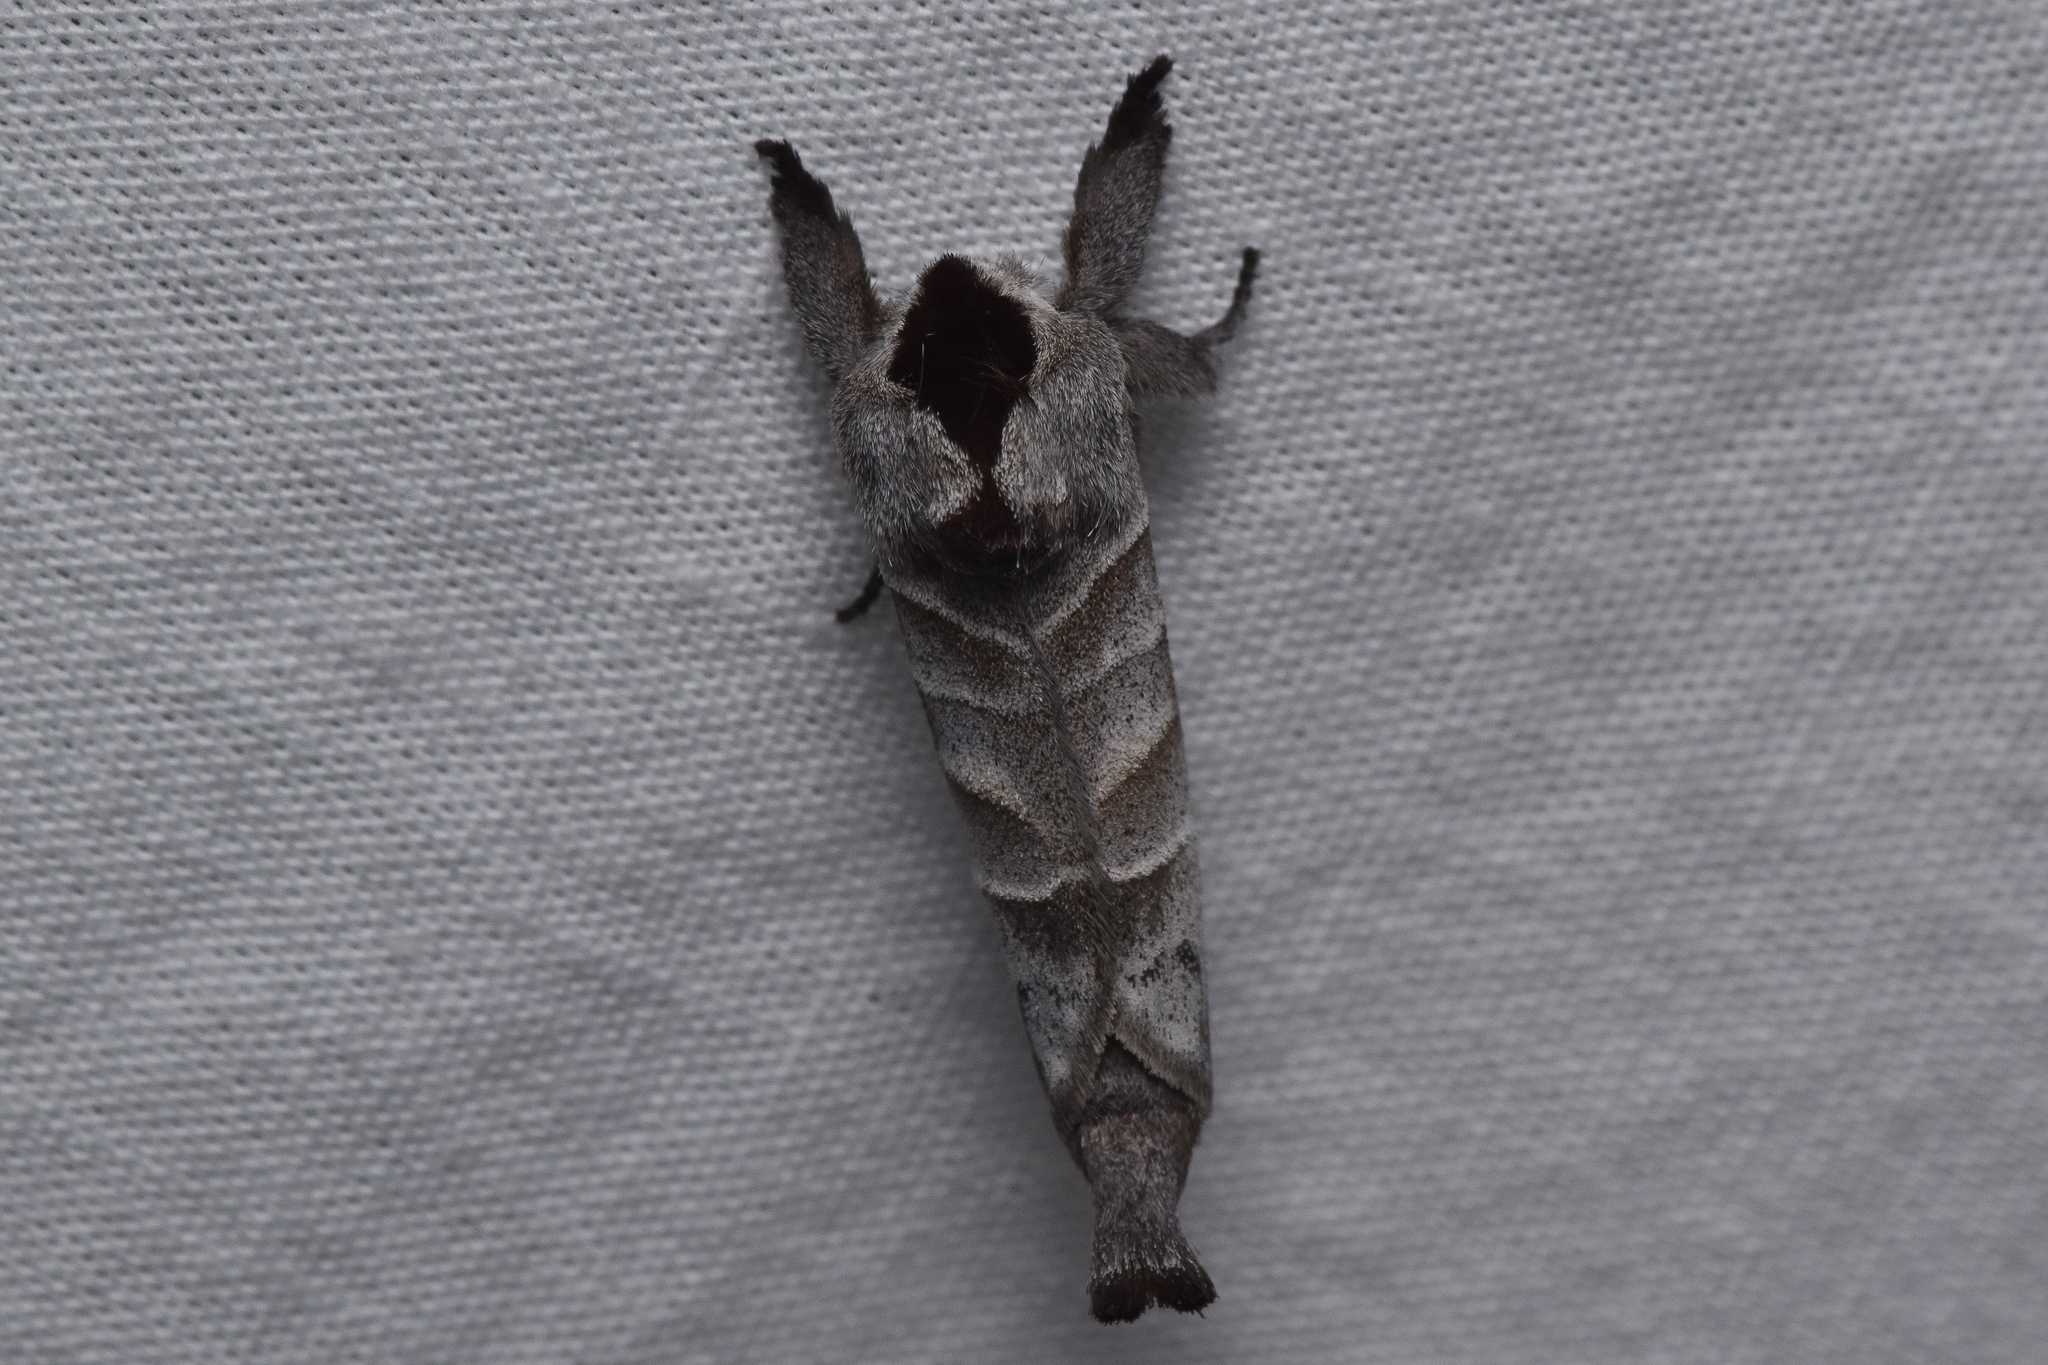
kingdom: Animalia
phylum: Arthropoda
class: Insecta
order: Lepidoptera
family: Notodontidae
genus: Clostera
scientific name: Clostera albosigma
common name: Sigmoid prominent
